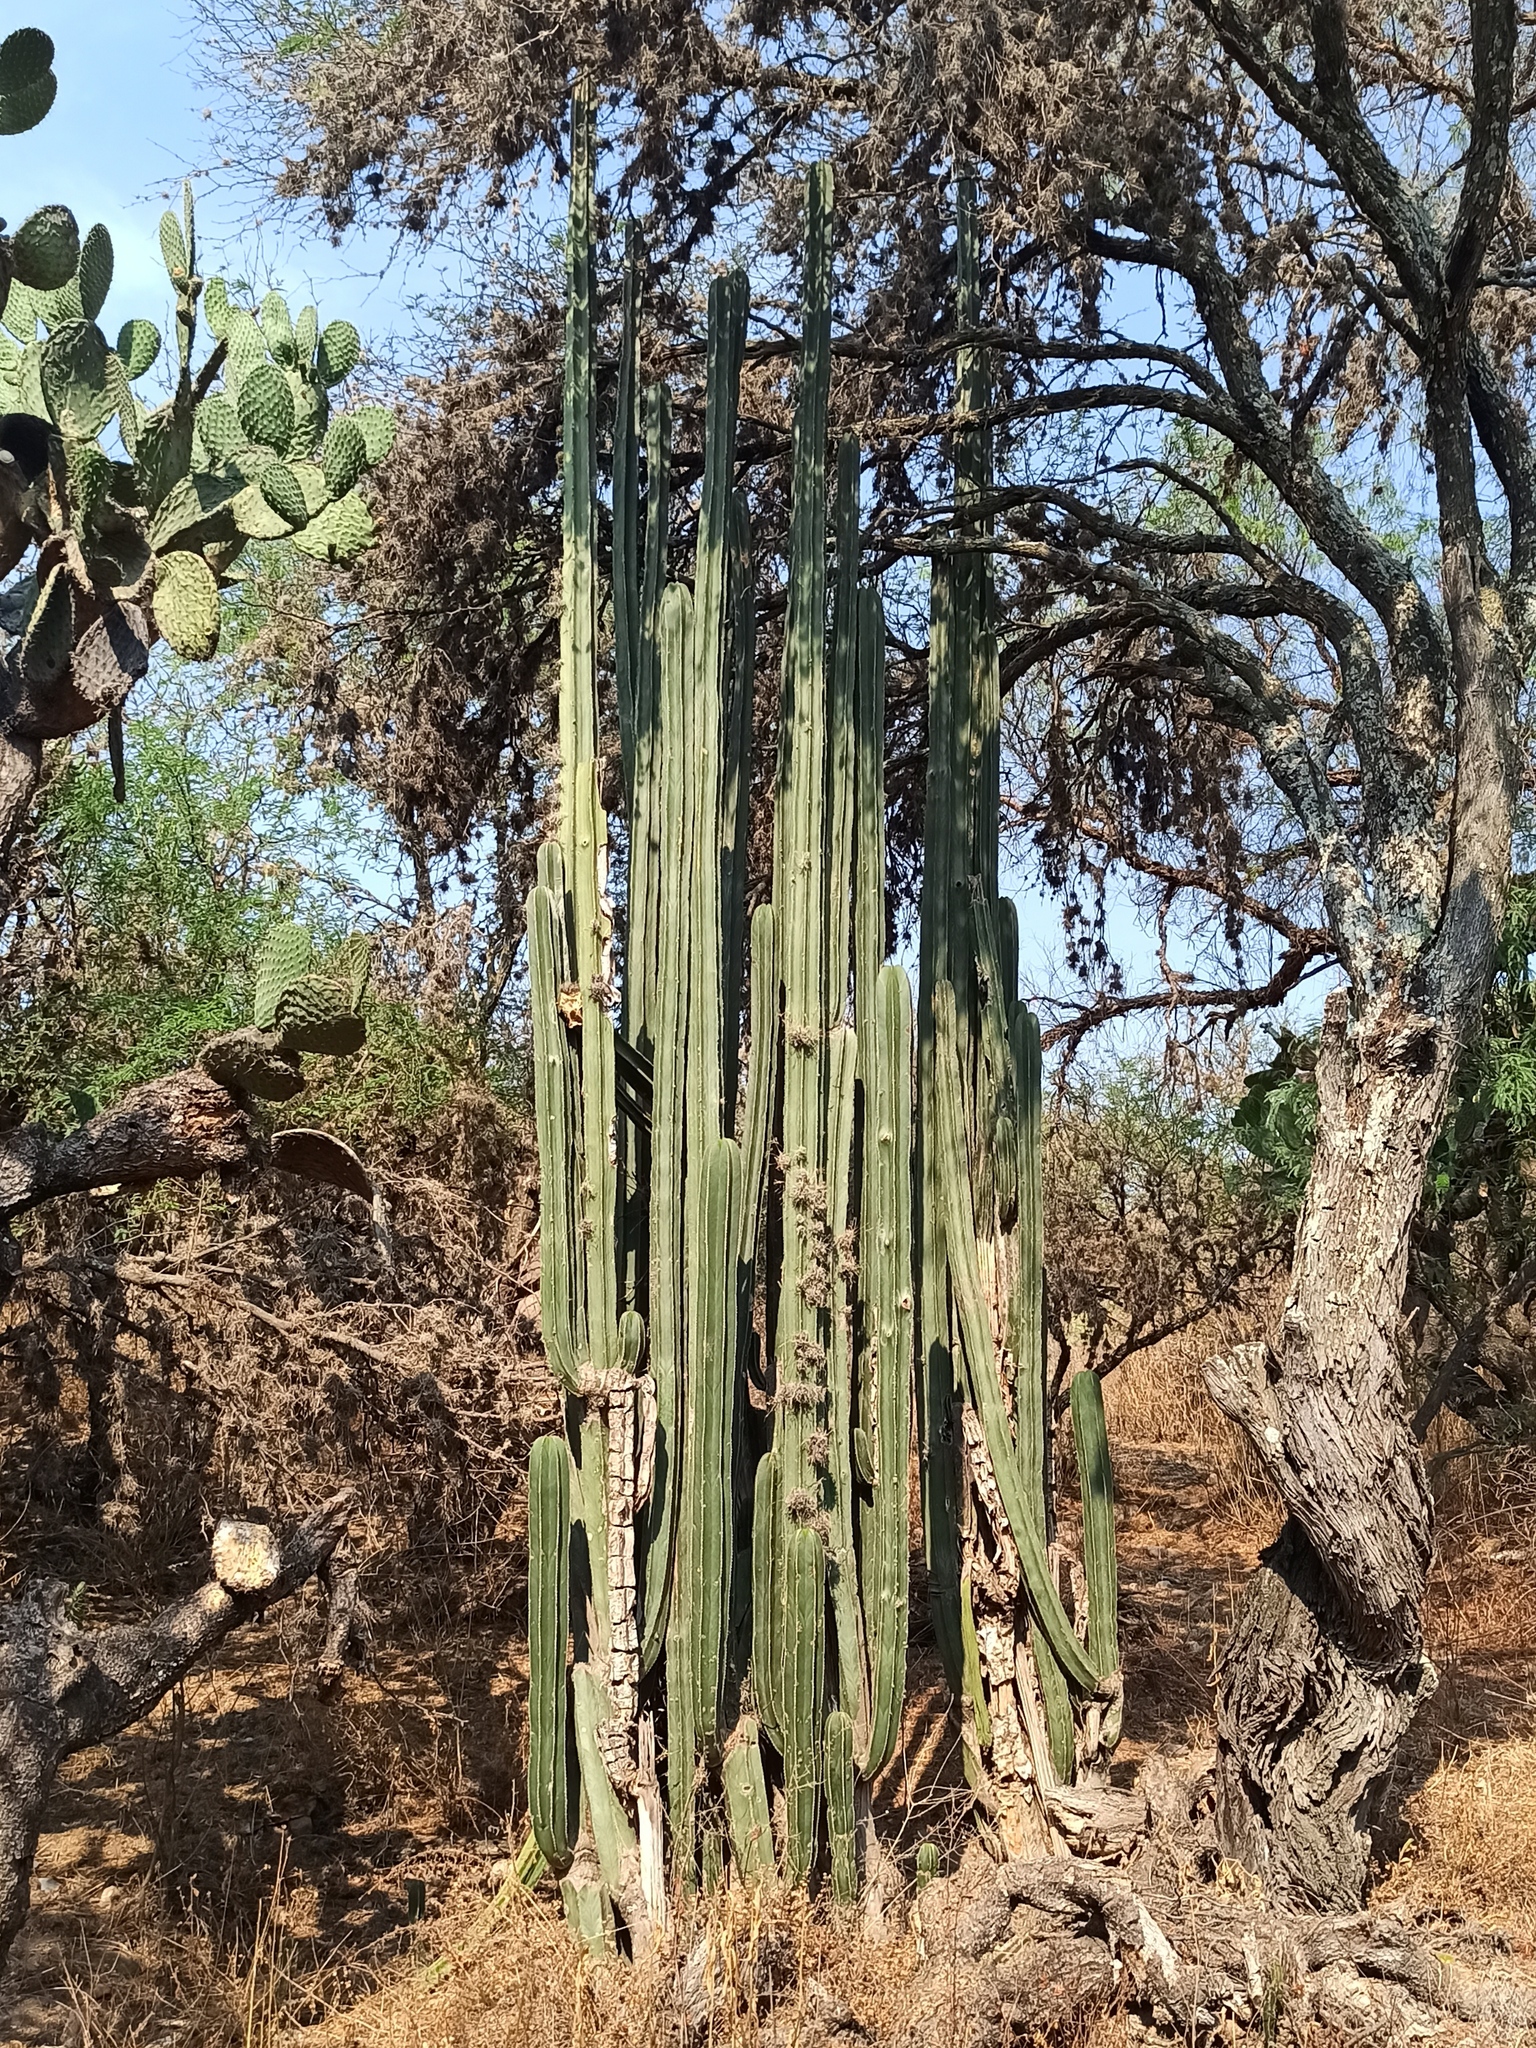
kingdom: Plantae
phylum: Tracheophyta
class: Magnoliopsida
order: Caryophyllales
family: Cactaceae
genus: Marginatocereus
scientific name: Marginatocereus marginatus
